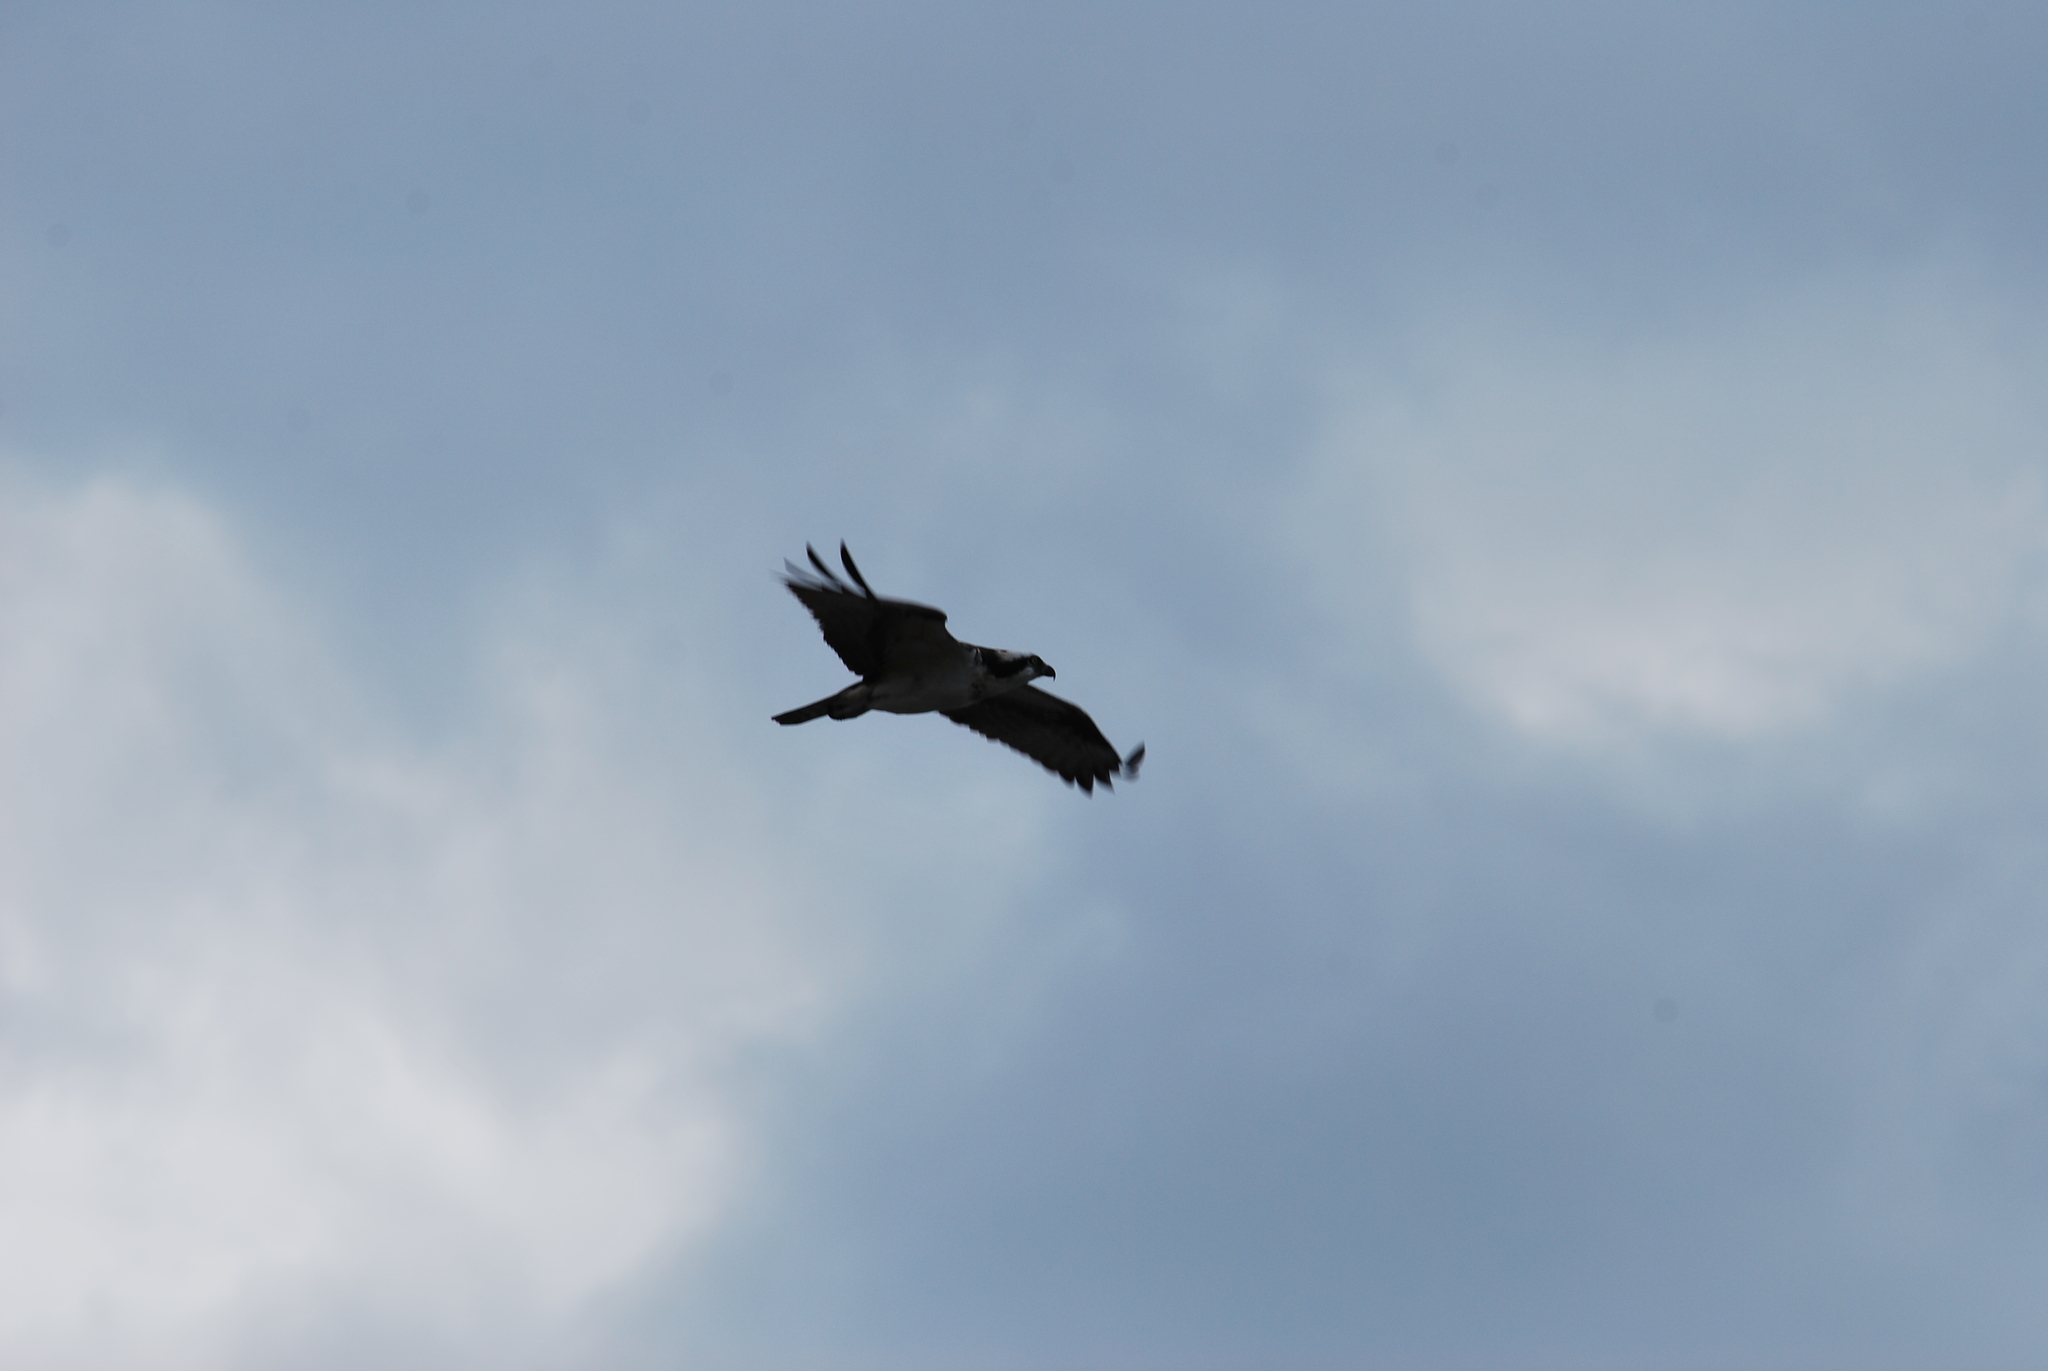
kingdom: Animalia
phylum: Chordata
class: Aves
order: Accipitriformes
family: Pandionidae
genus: Pandion
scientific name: Pandion haliaetus
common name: Osprey
